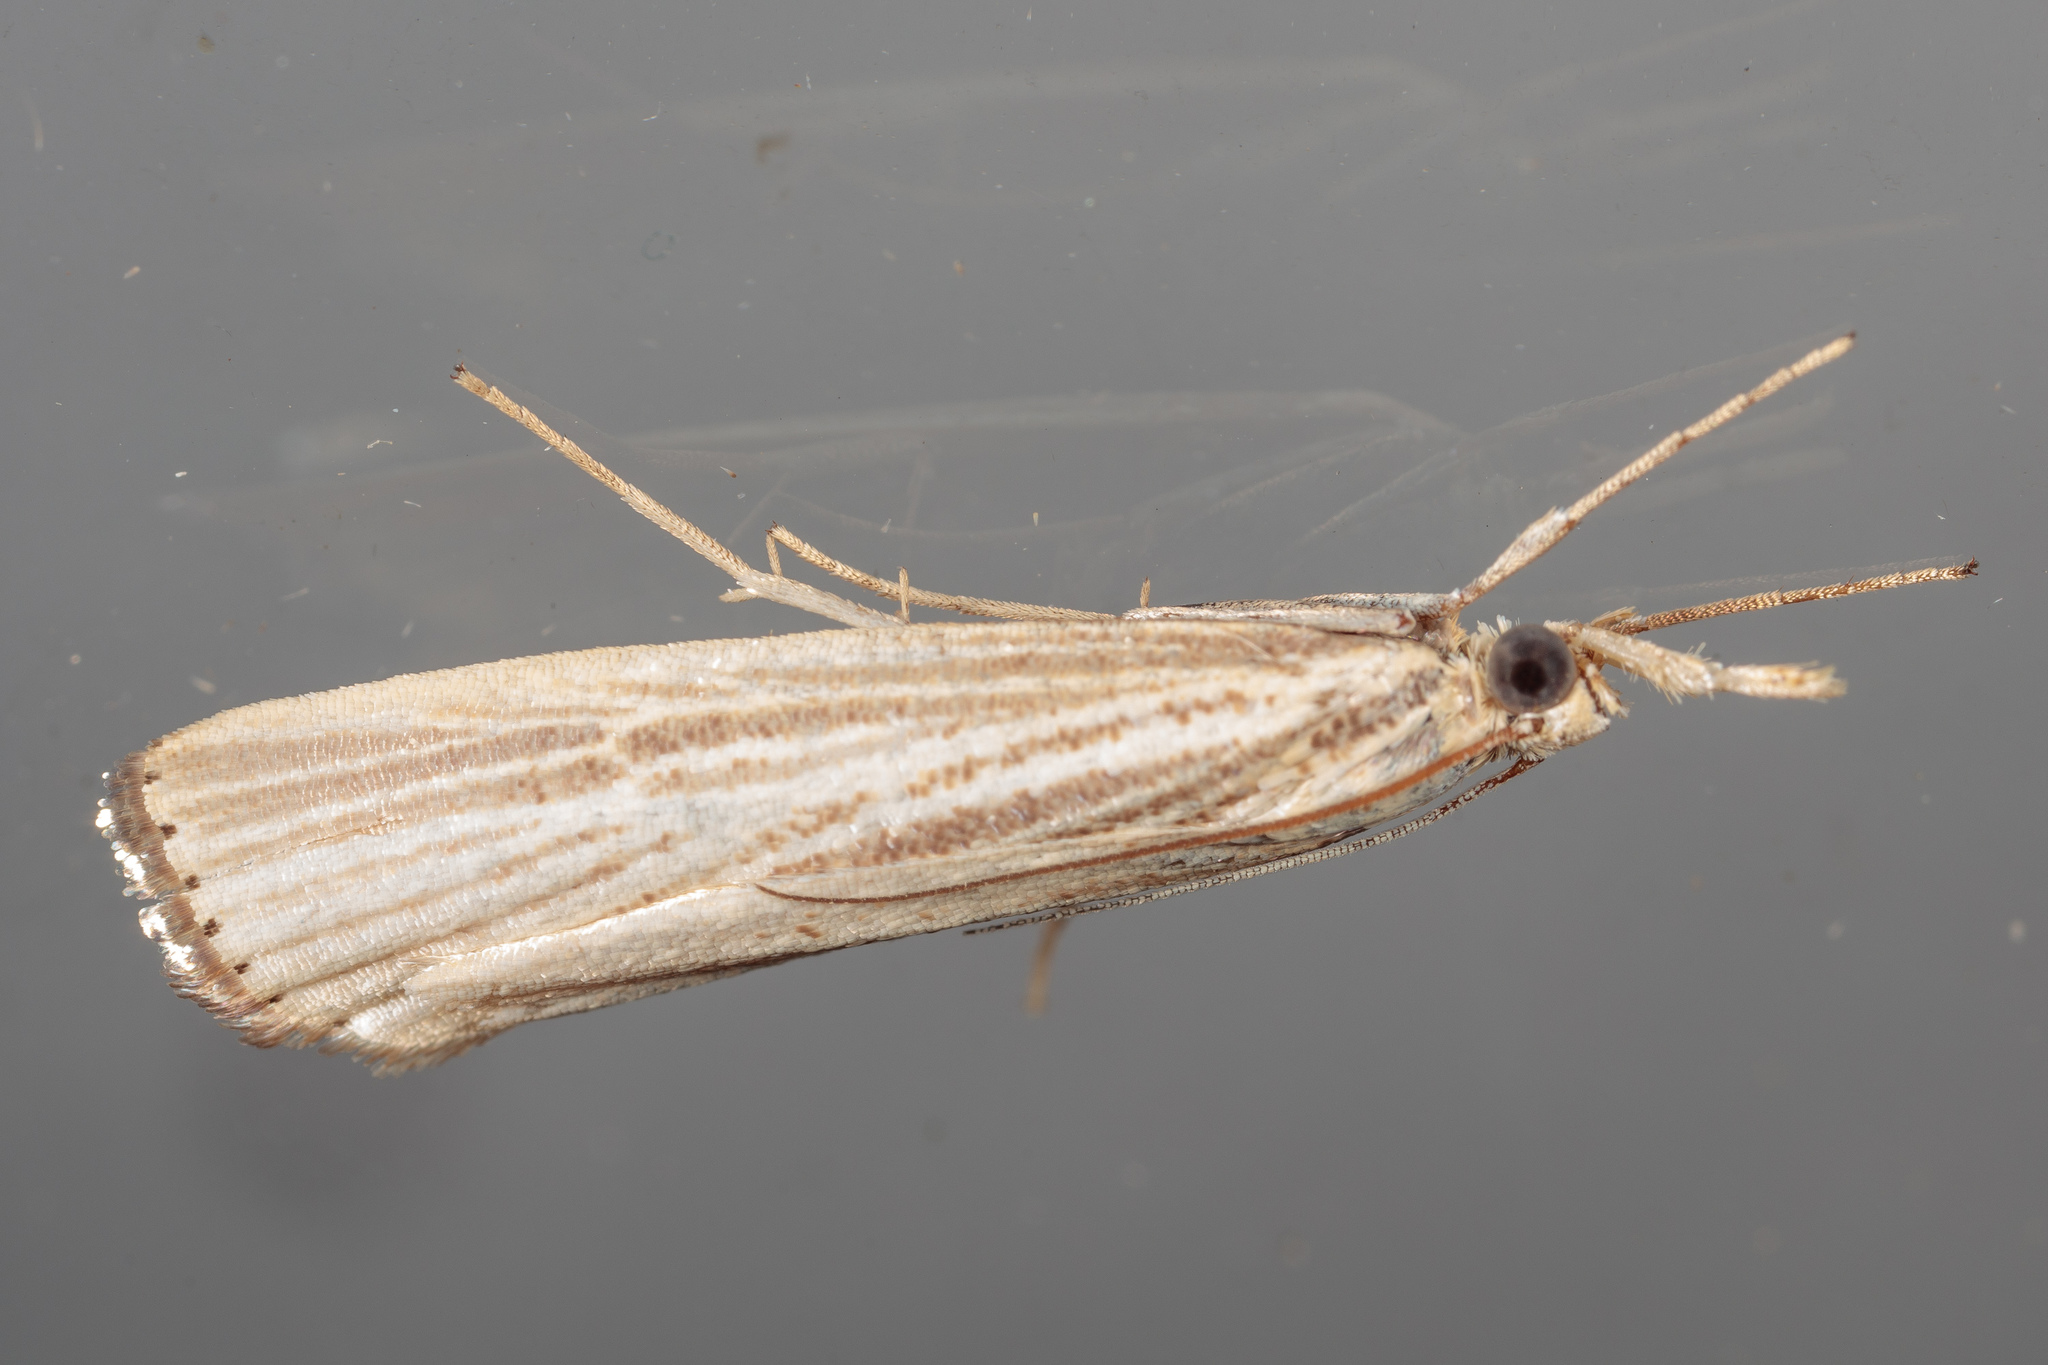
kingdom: Animalia
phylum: Arthropoda
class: Insecta
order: Lepidoptera
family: Crambidae
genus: Agriphila
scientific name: Agriphila vulgivagellus
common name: Vagabond crambus moth
